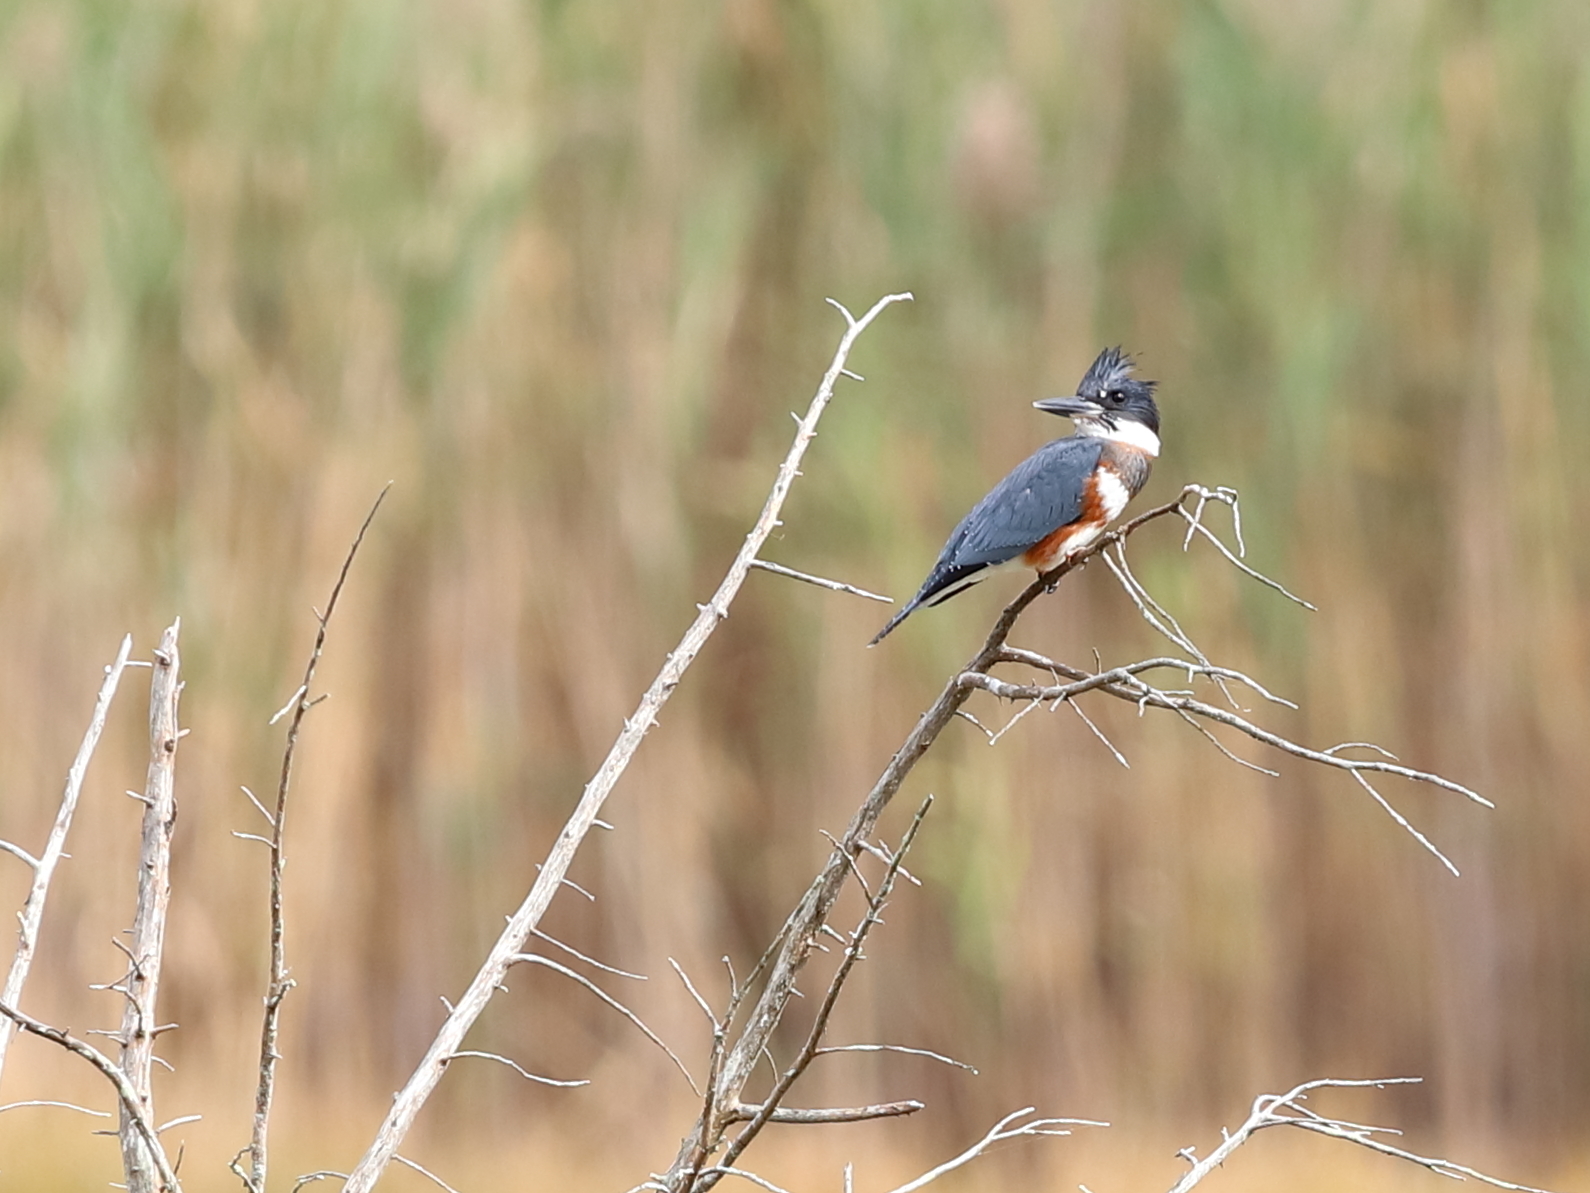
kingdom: Animalia
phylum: Chordata
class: Aves
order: Coraciiformes
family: Alcedinidae
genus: Megaceryle
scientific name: Megaceryle alcyon
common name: Belted kingfisher
